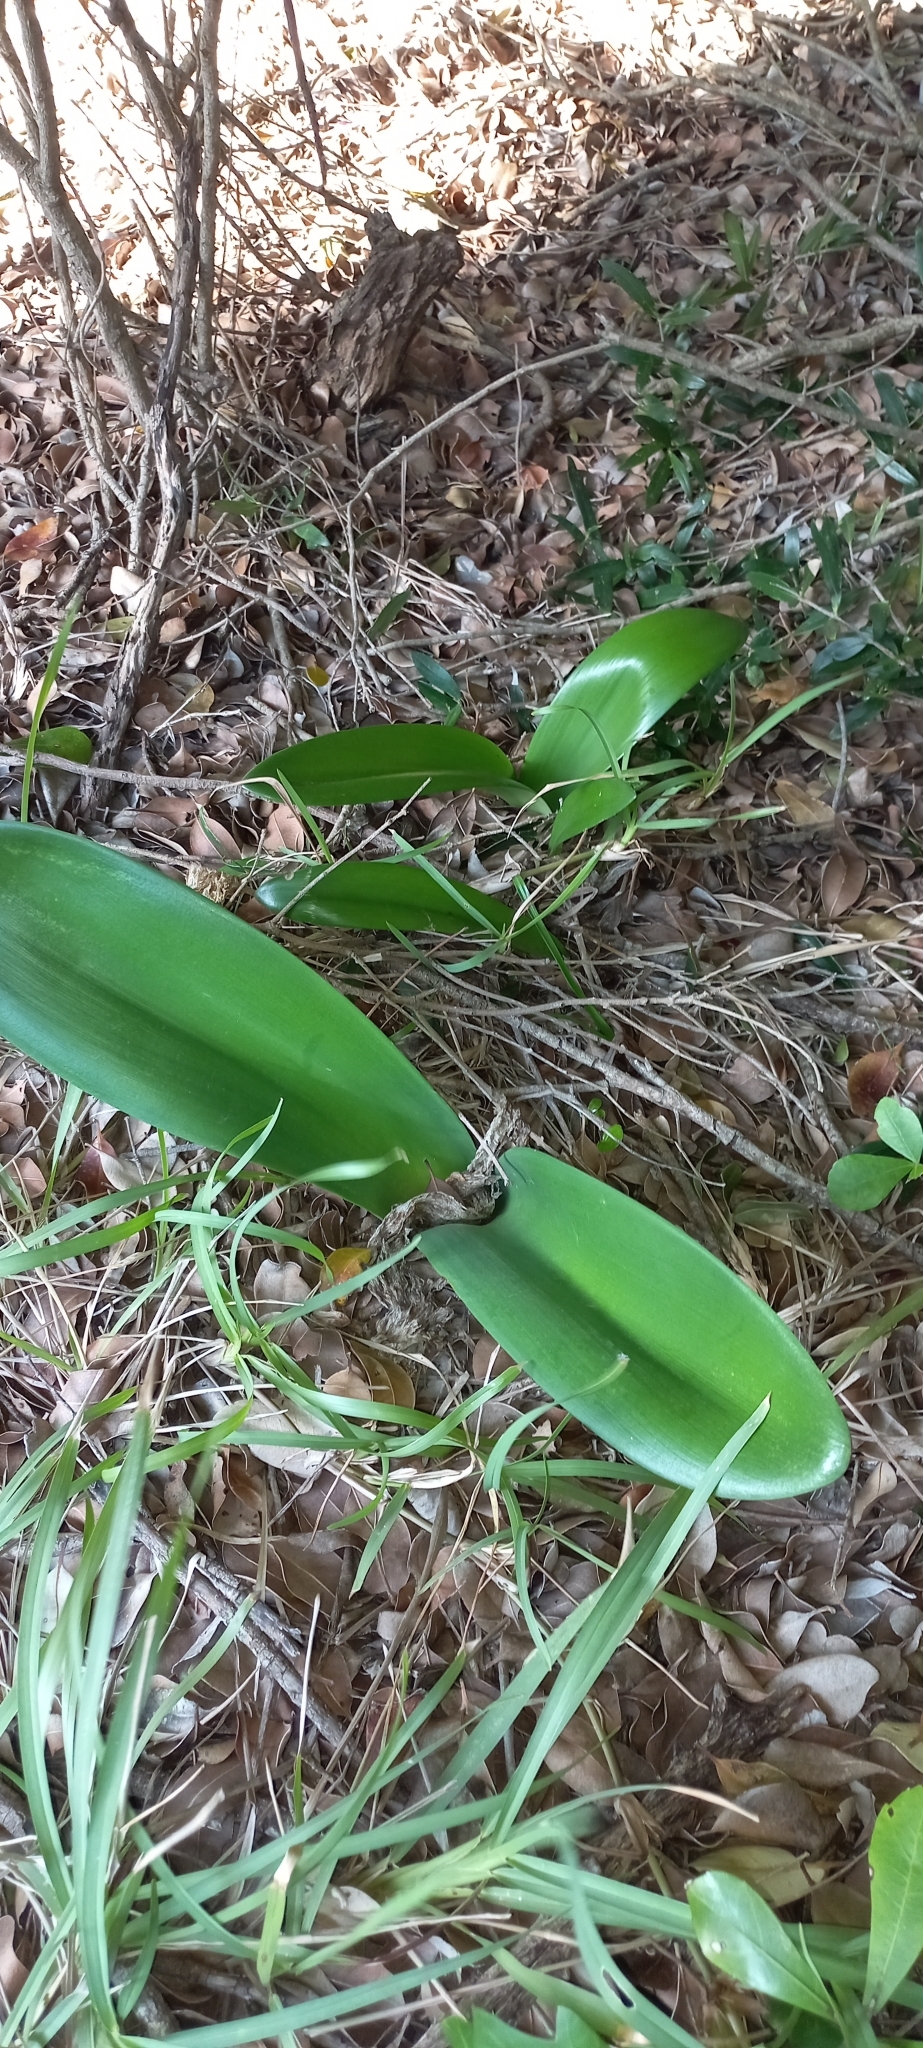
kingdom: Plantae
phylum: Tracheophyta
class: Liliopsida
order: Asparagales
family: Amaryllidaceae
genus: Haemanthus
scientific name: Haemanthus coccineus
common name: Cape-tulip
